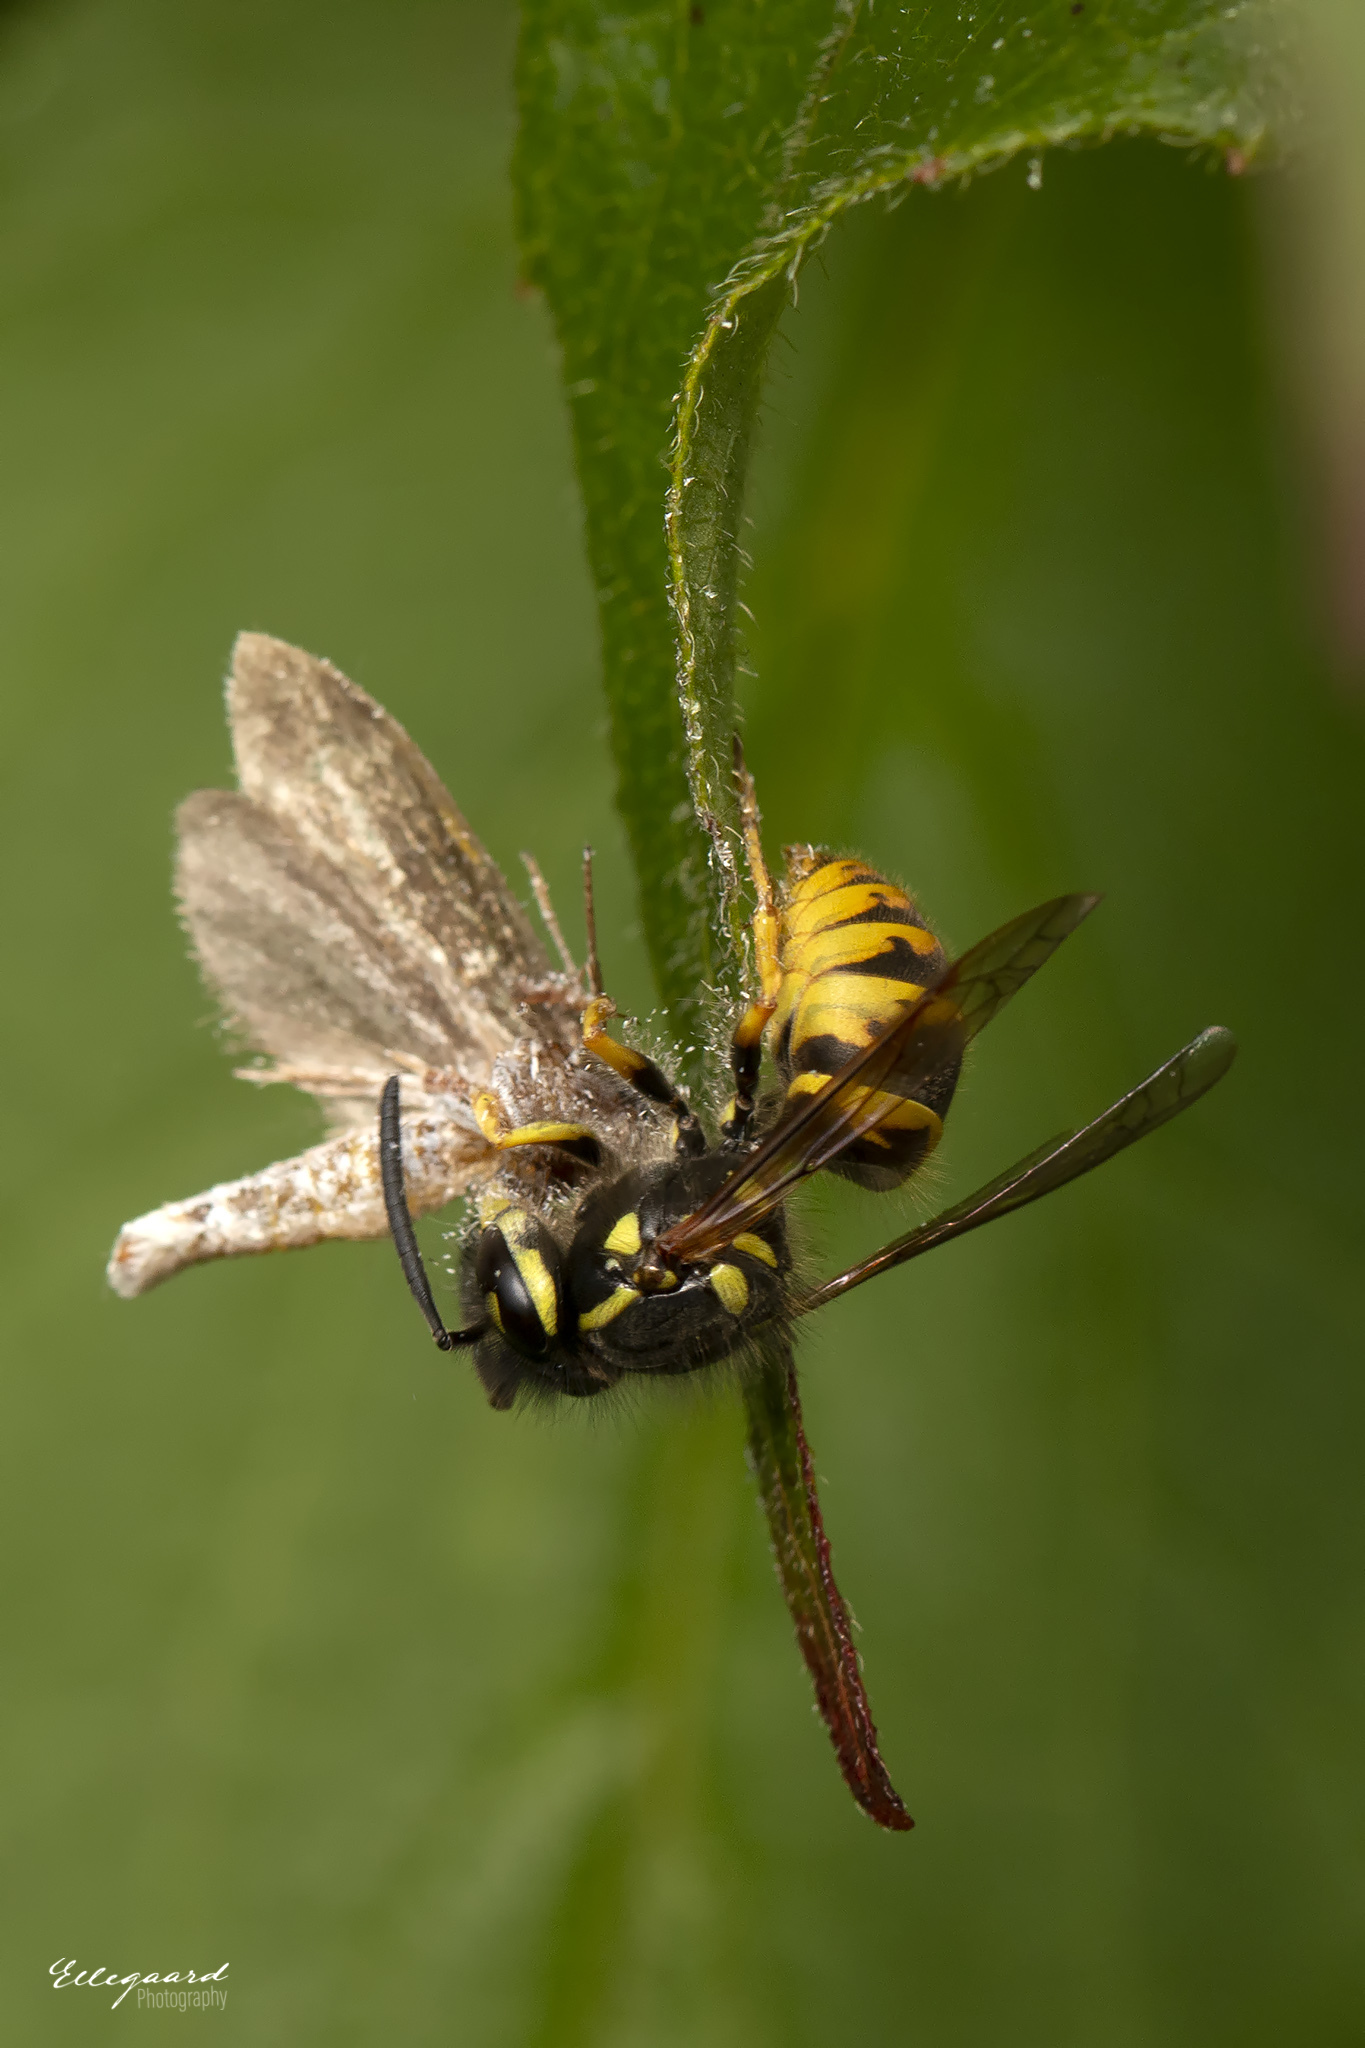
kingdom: Animalia
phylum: Arthropoda
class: Insecta
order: Hymenoptera
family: Vespidae
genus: Vespula
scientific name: Vespula vulgaris
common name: Common wasp
